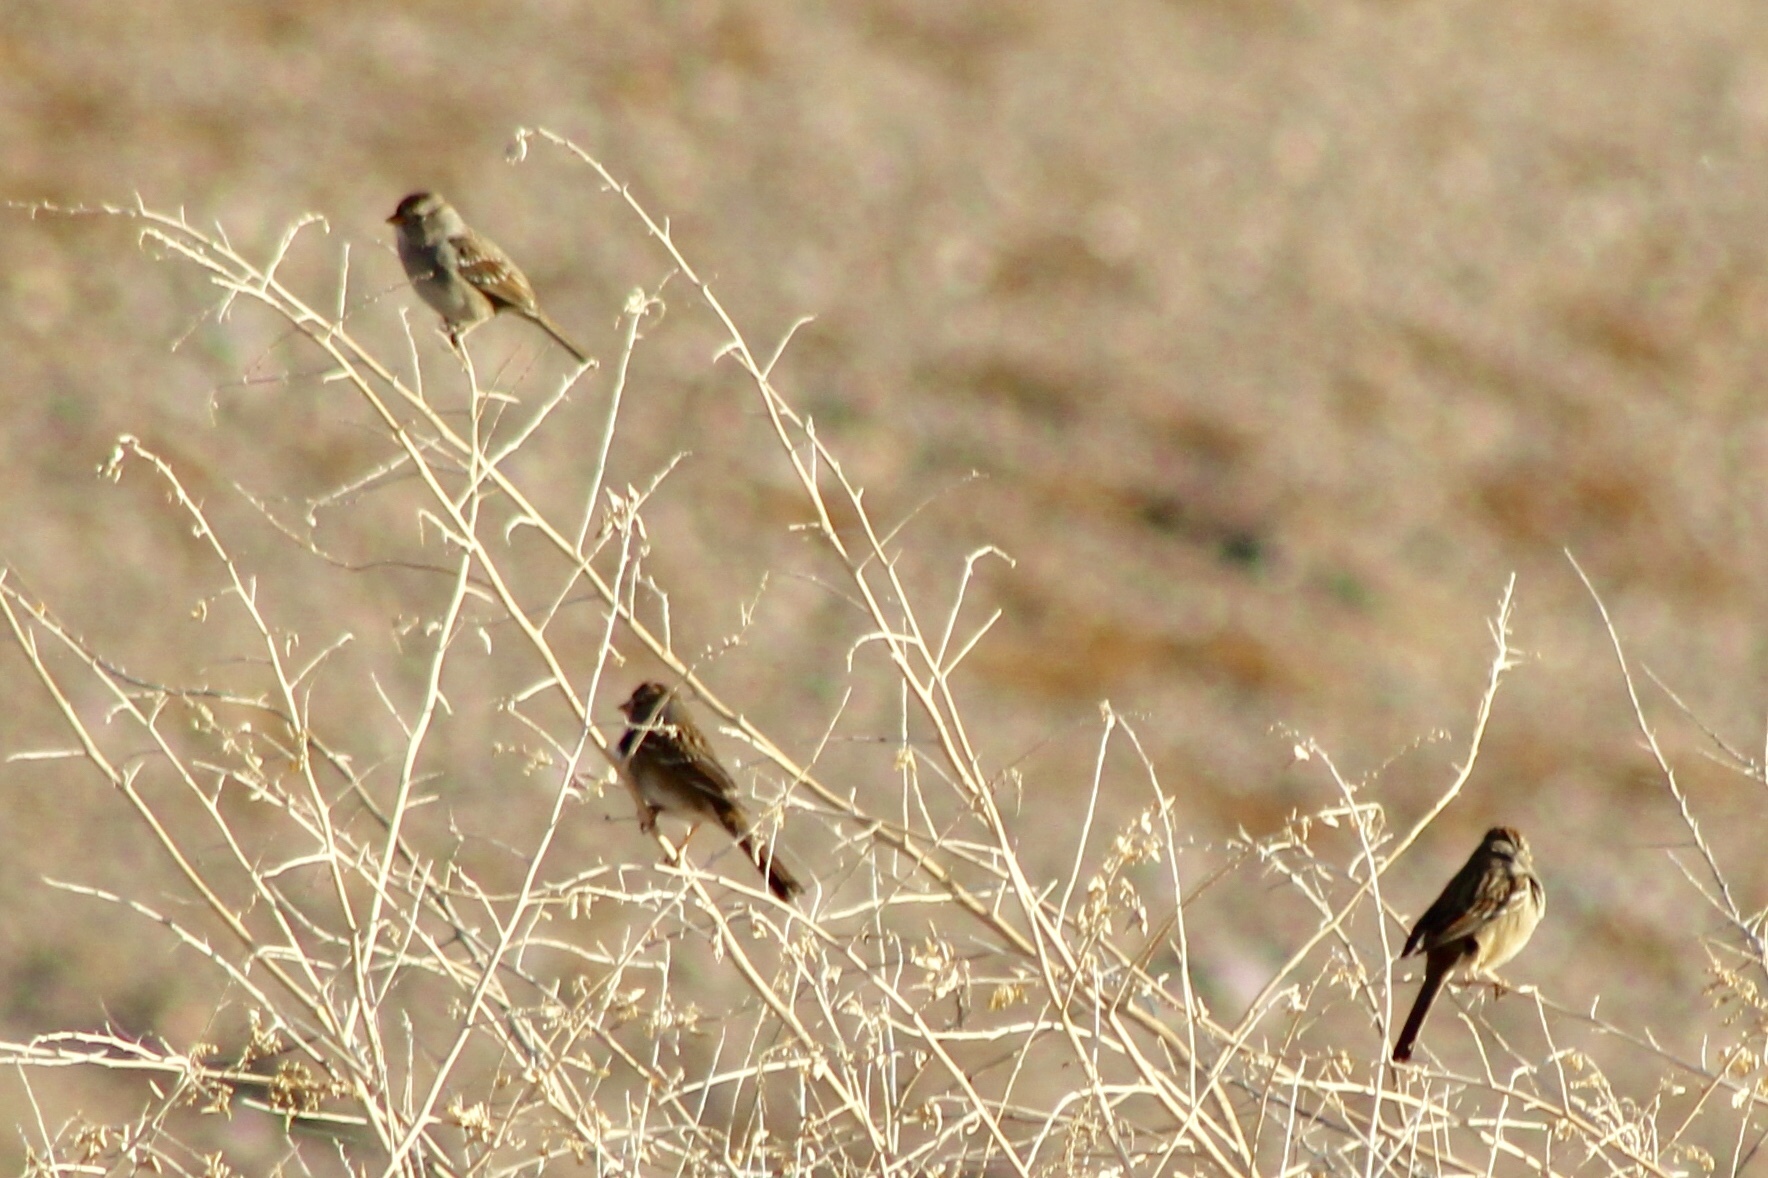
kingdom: Animalia
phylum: Chordata
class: Aves
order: Passeriformes
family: Passerellidae
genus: Zonotrichia
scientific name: Zonotrichia leucophrys
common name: White-crowned sparrow
